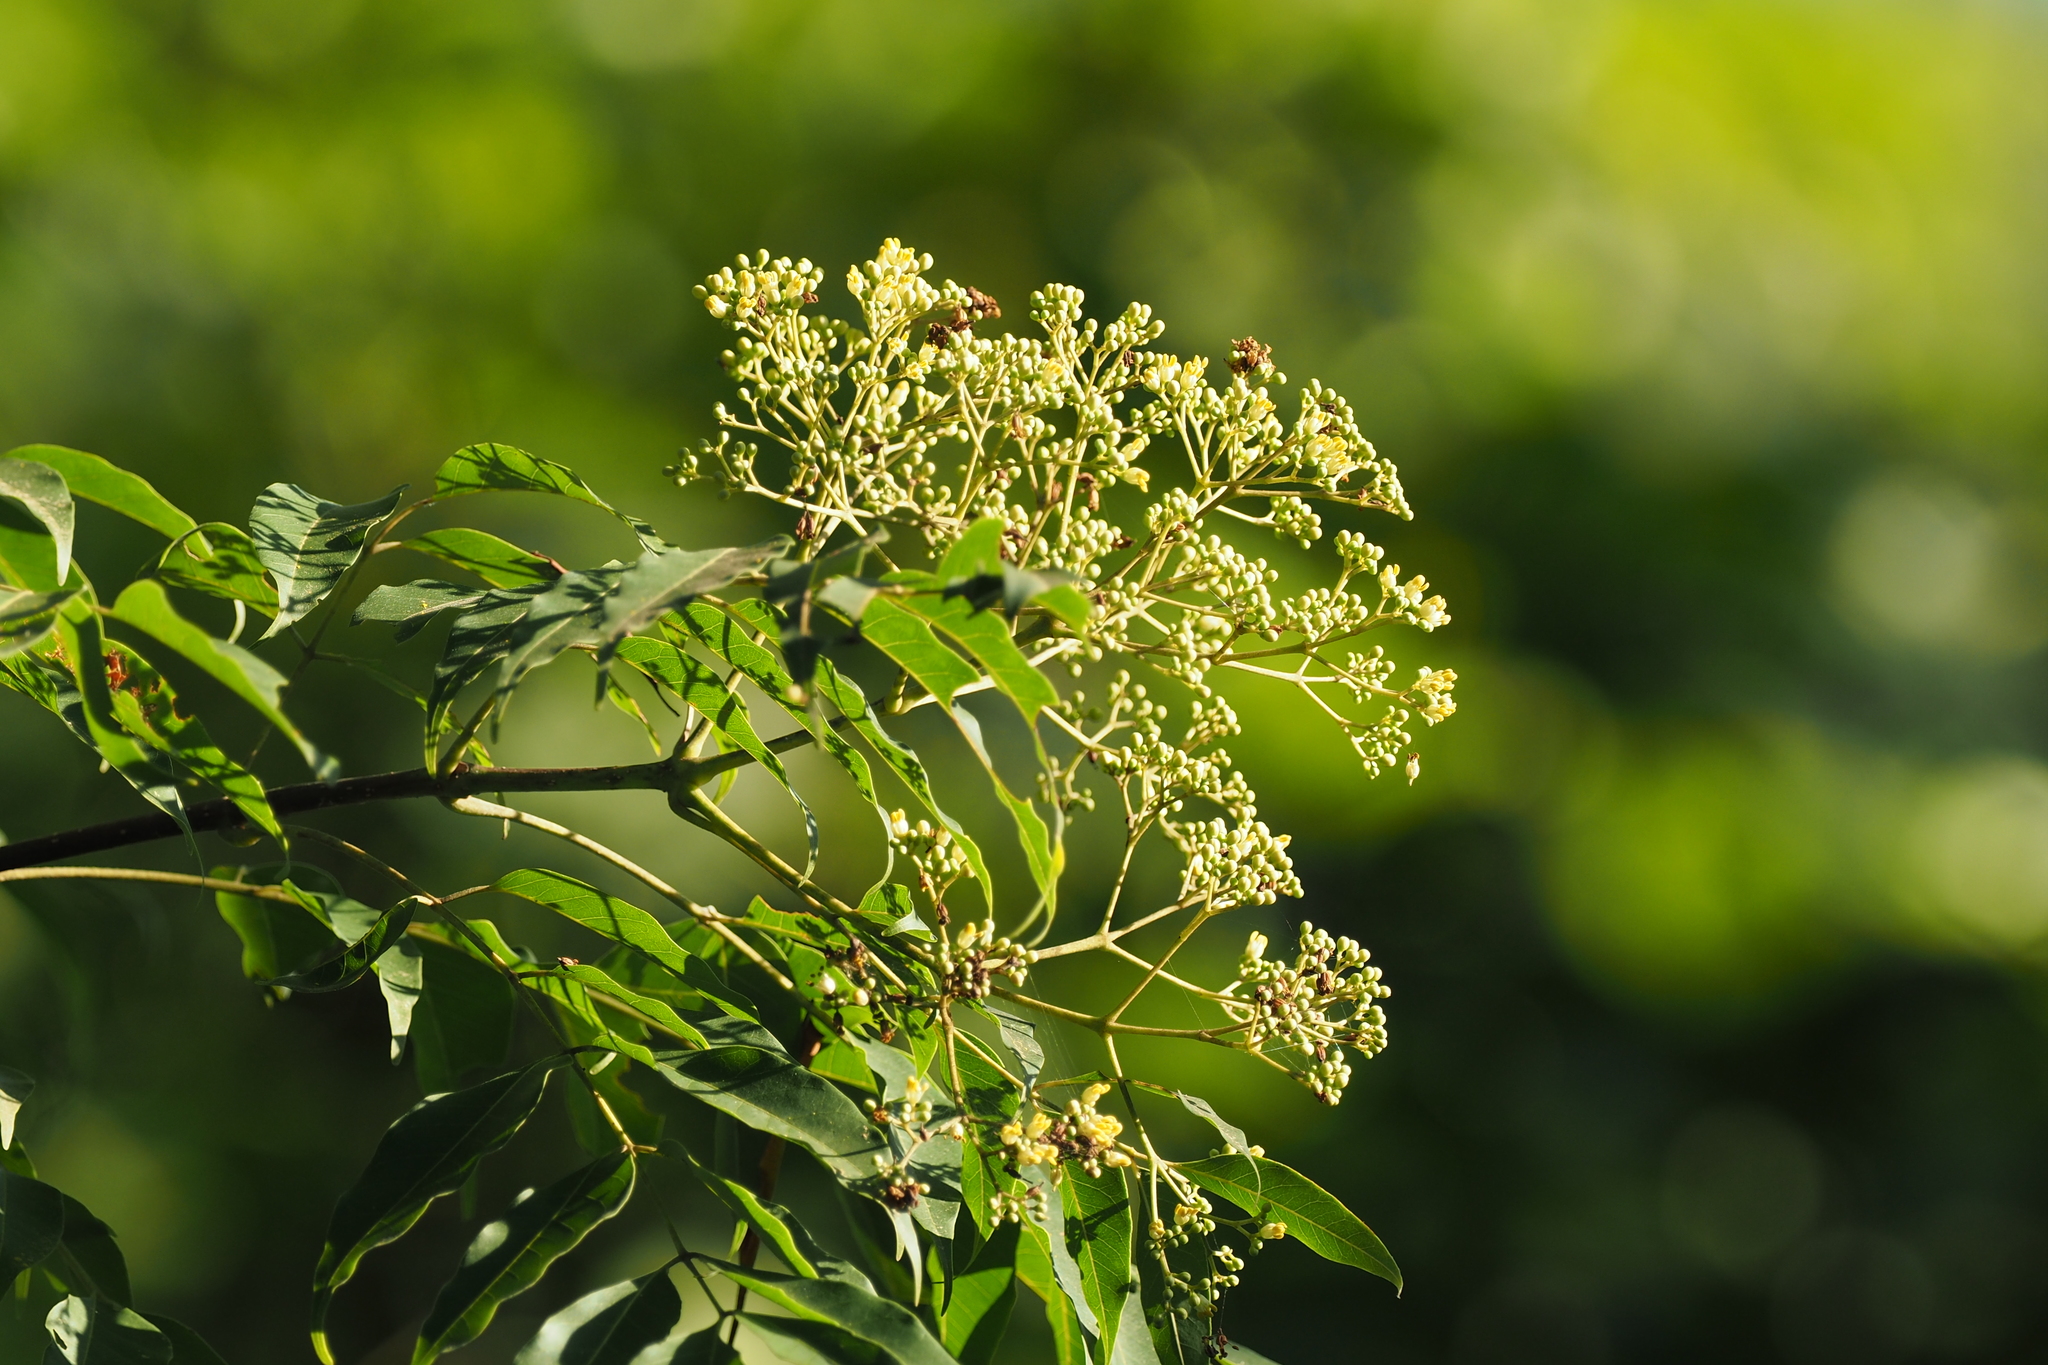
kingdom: Plantae
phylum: Tracheophyta
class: Magnoliopsida
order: Sapindales
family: Rutaceae
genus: Tetradium
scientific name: Tetradium glabrifolium
